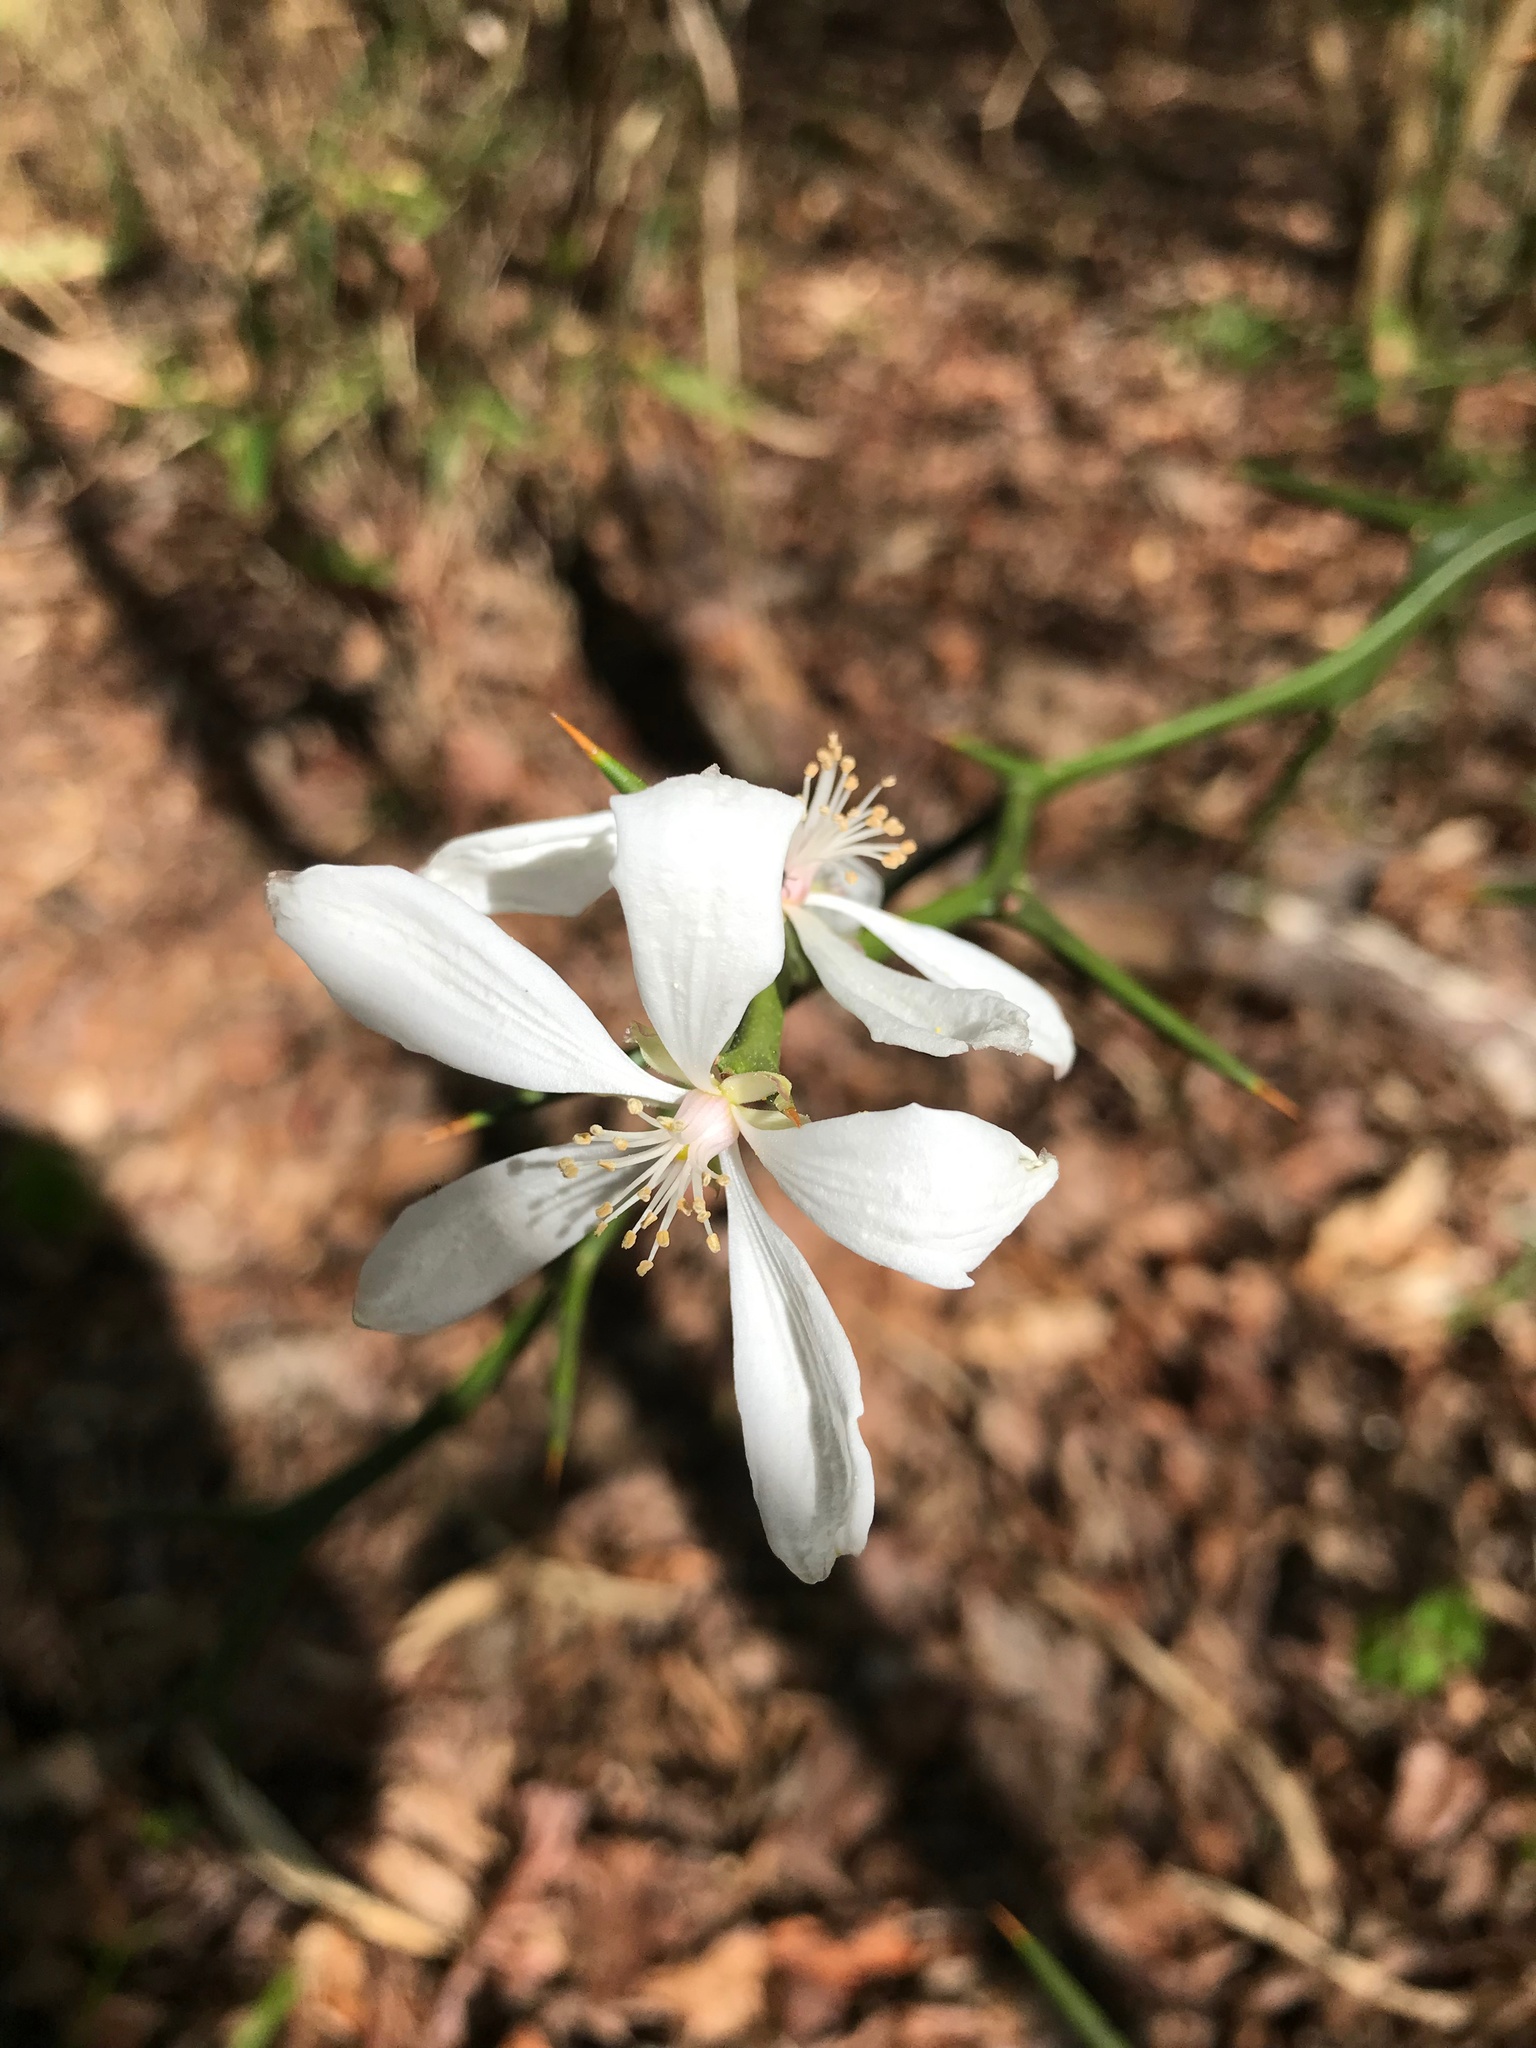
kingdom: Plantae
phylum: Tracheophyta
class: Magnoliopsida
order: Sapindales
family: Rutaceae
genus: Citrus
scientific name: Citrus trifoliata
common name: Japanese bitter-orange
